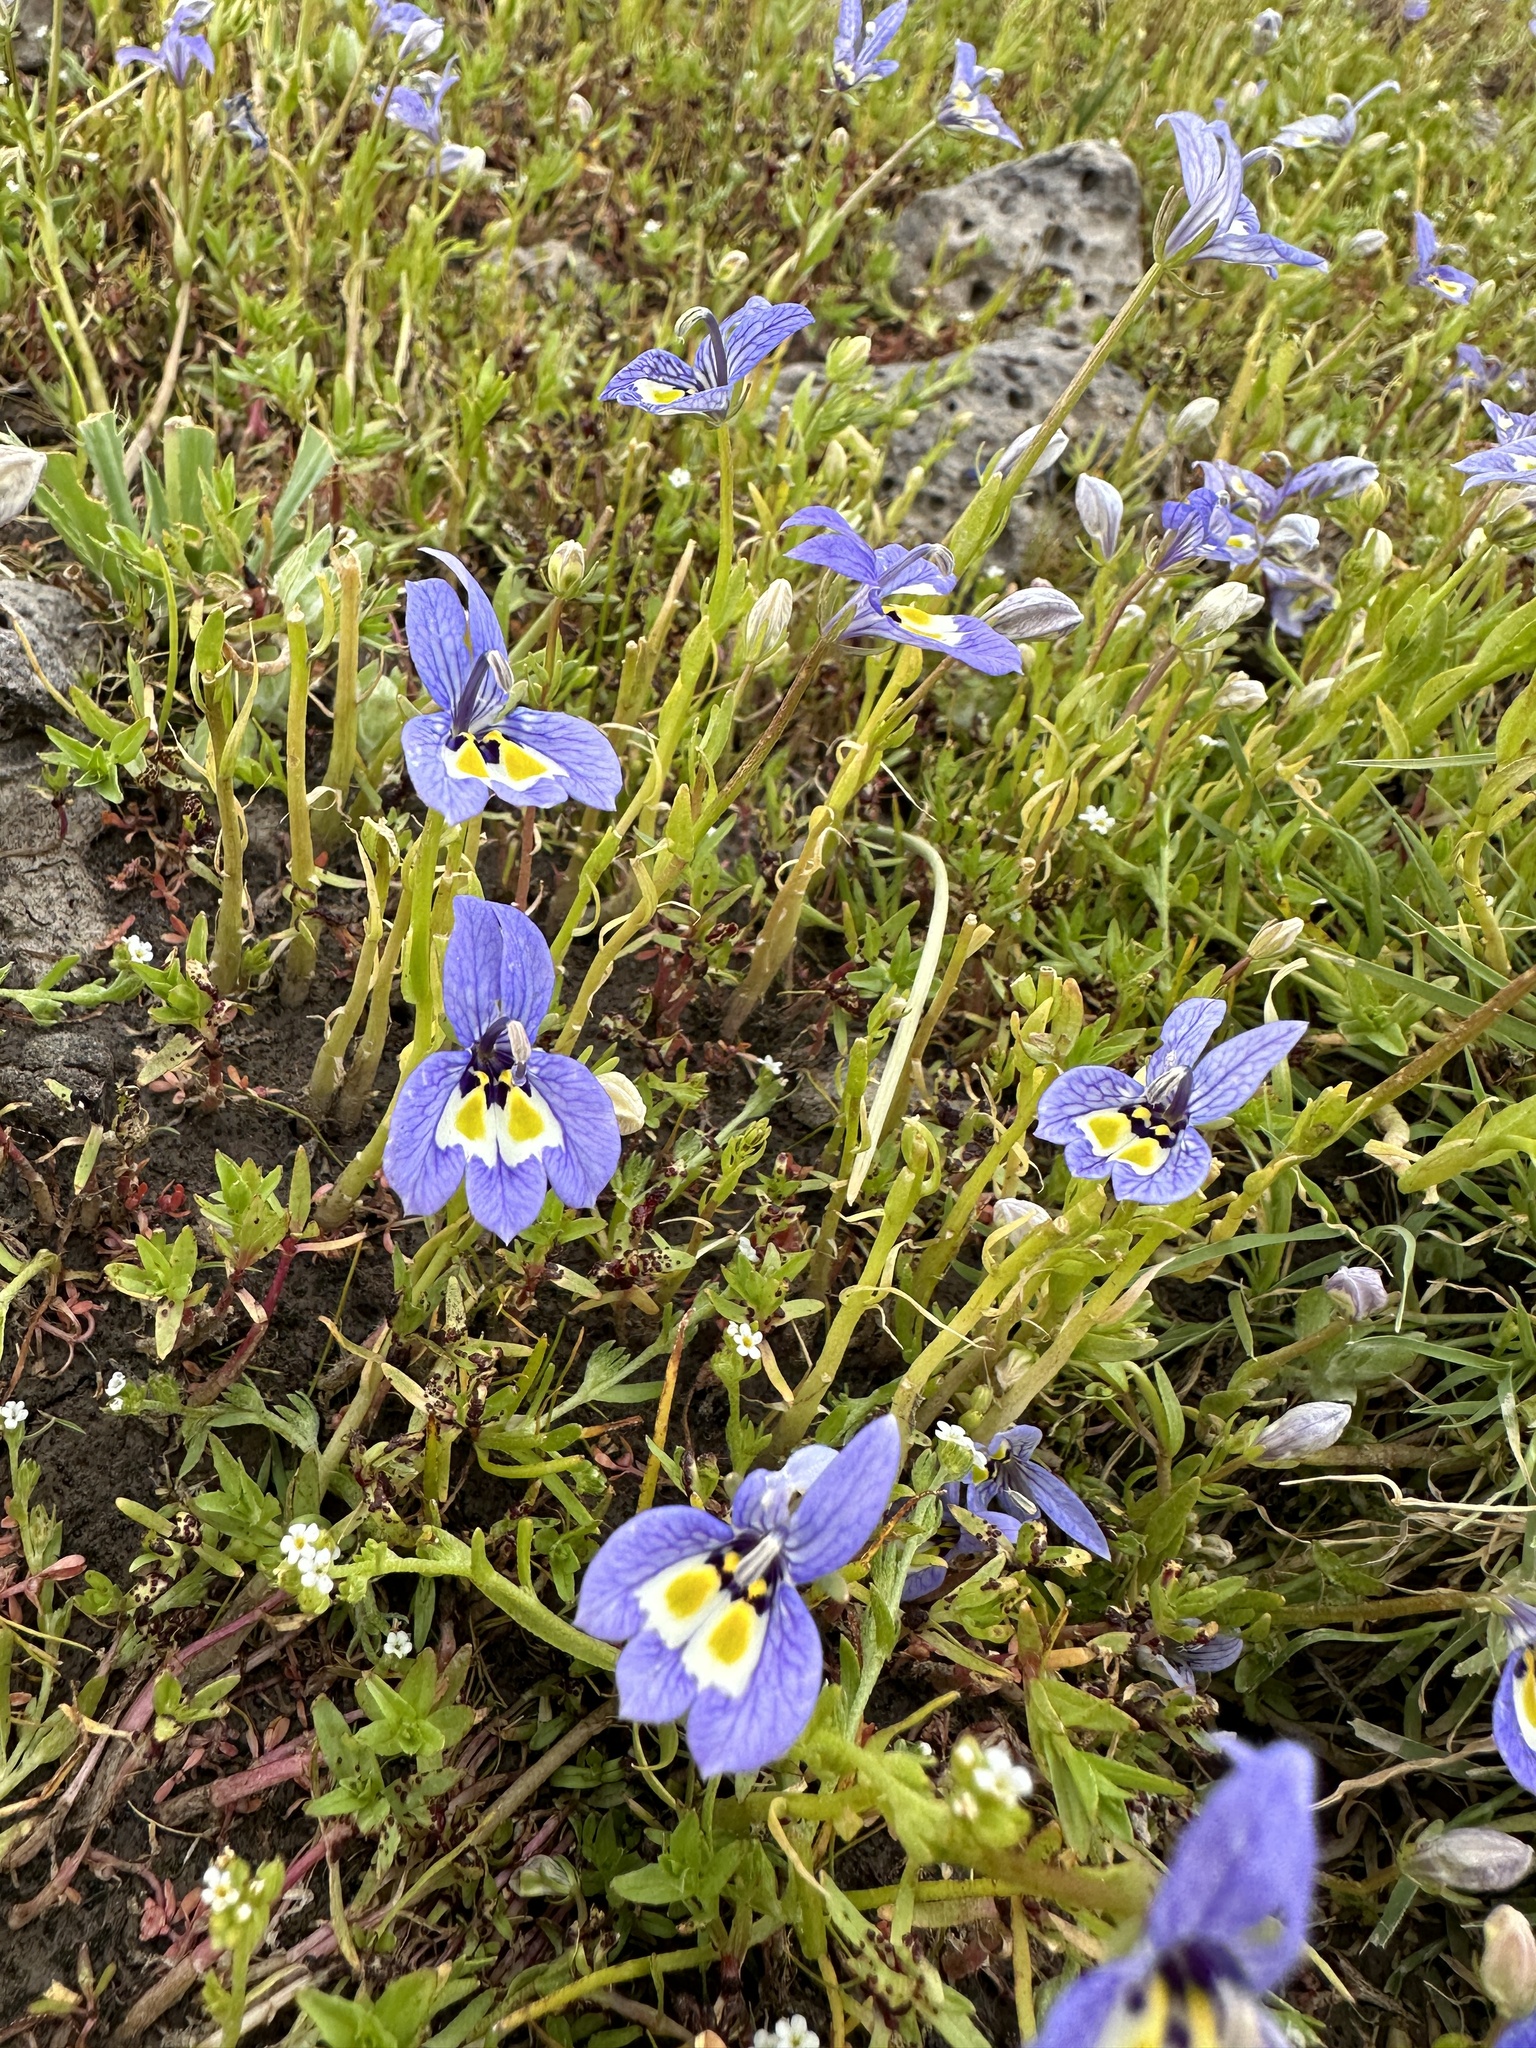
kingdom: Plantae
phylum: Tracheophyta
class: Magnoliopsida
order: Asterales
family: Campanulaceae
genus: Downingia
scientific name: Downingia insignis
